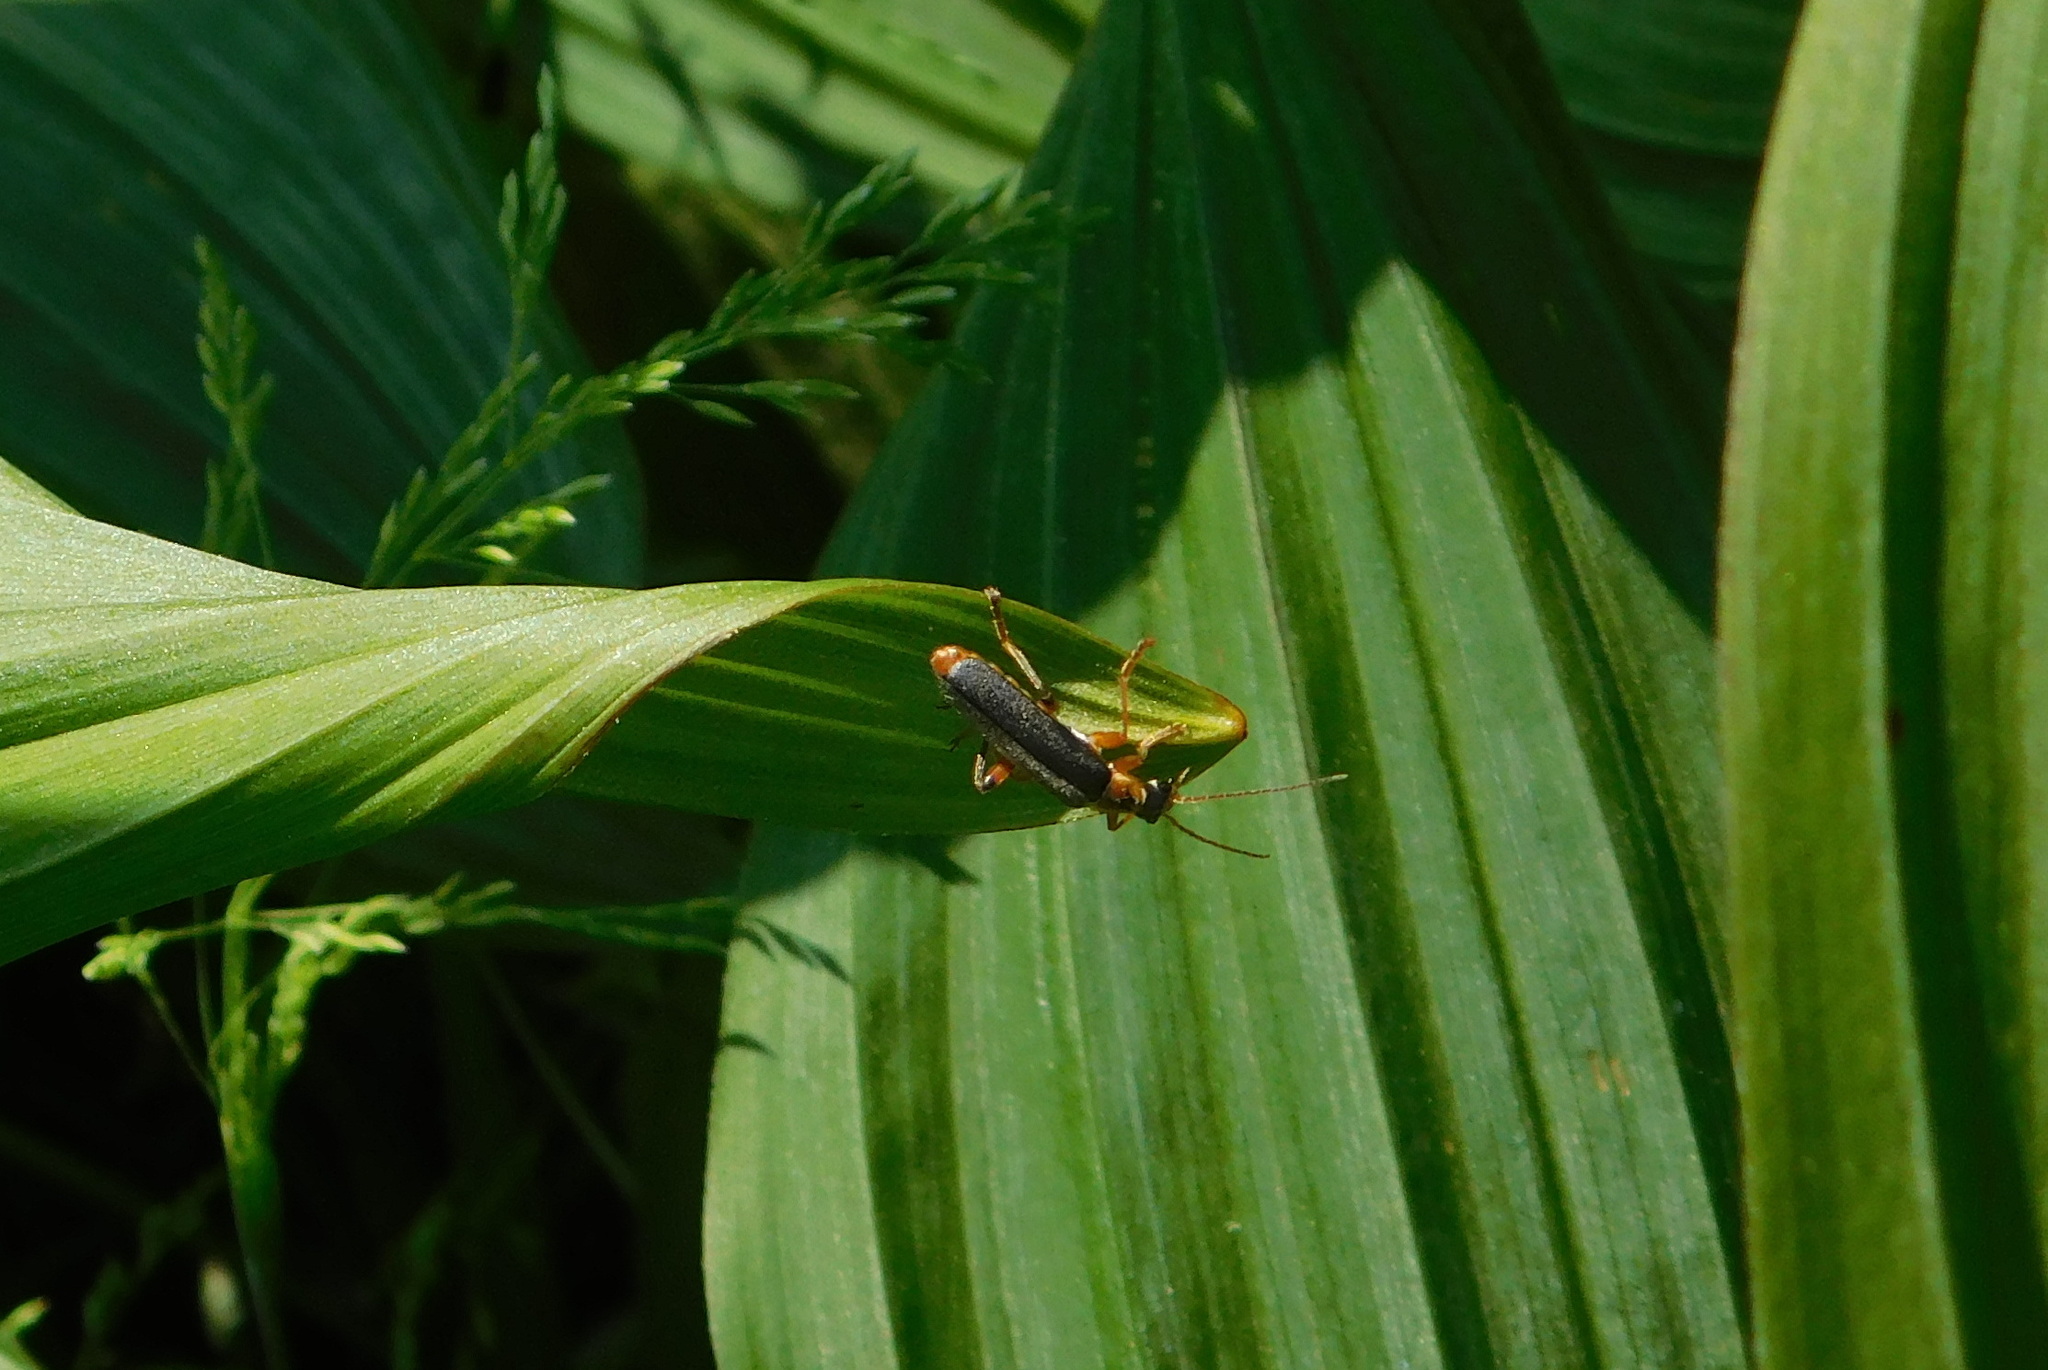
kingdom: Animalia
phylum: Arthropoda
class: Insecta
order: Coleoptera
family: Cantharidae
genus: Cantharis
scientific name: Cantharis nigricans
